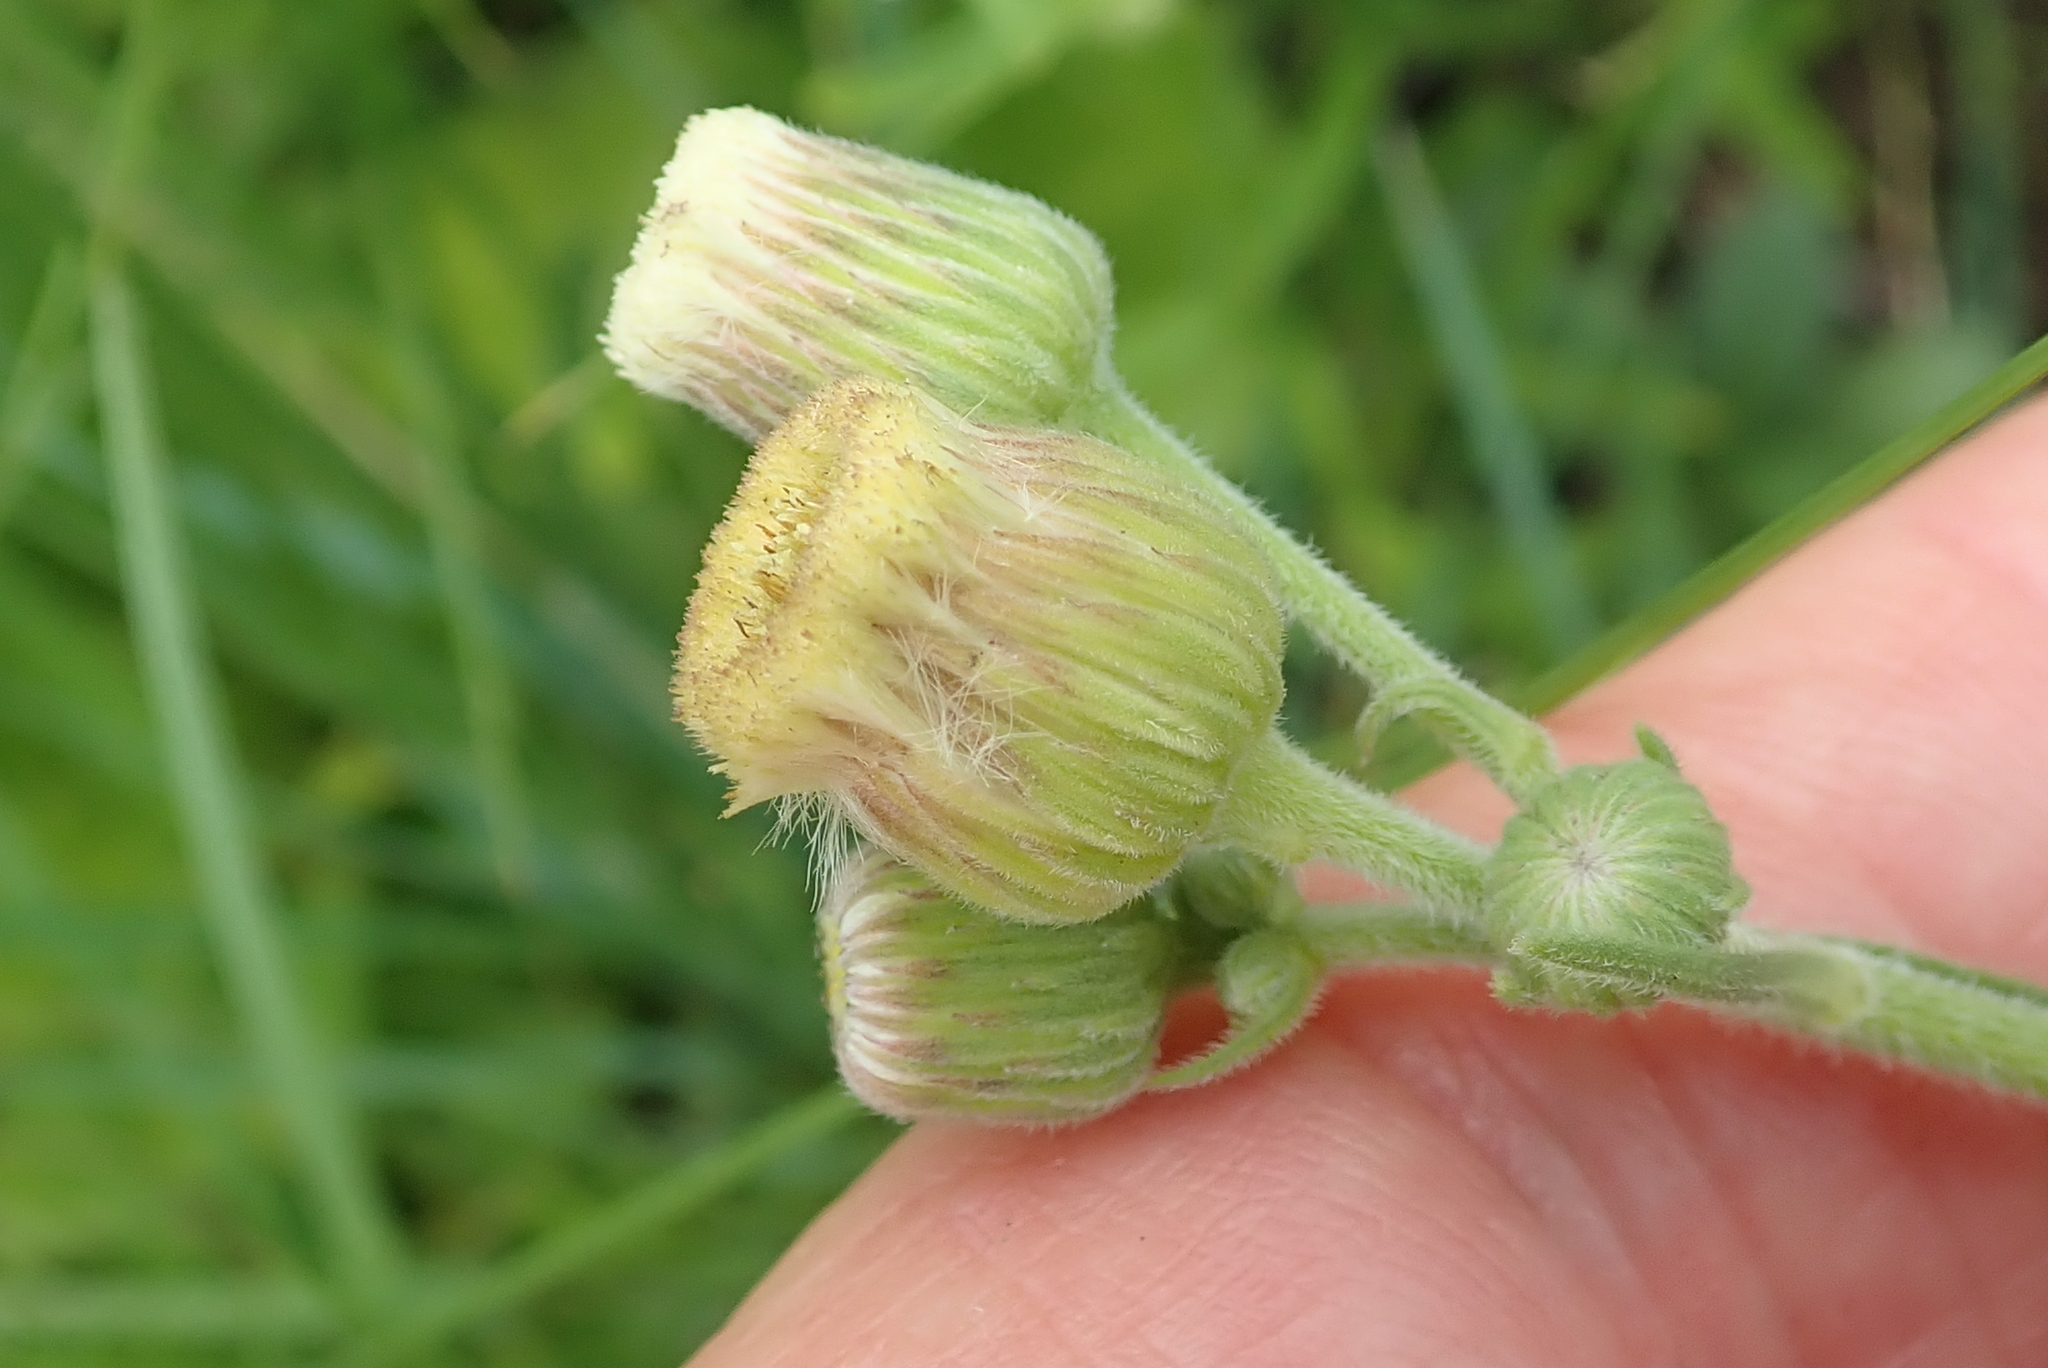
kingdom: Plantae
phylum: Tracheophyta
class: Magnoliopsida
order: Asterales
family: Asteraceae
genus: Erigeron
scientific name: Erigeron primulifolius
